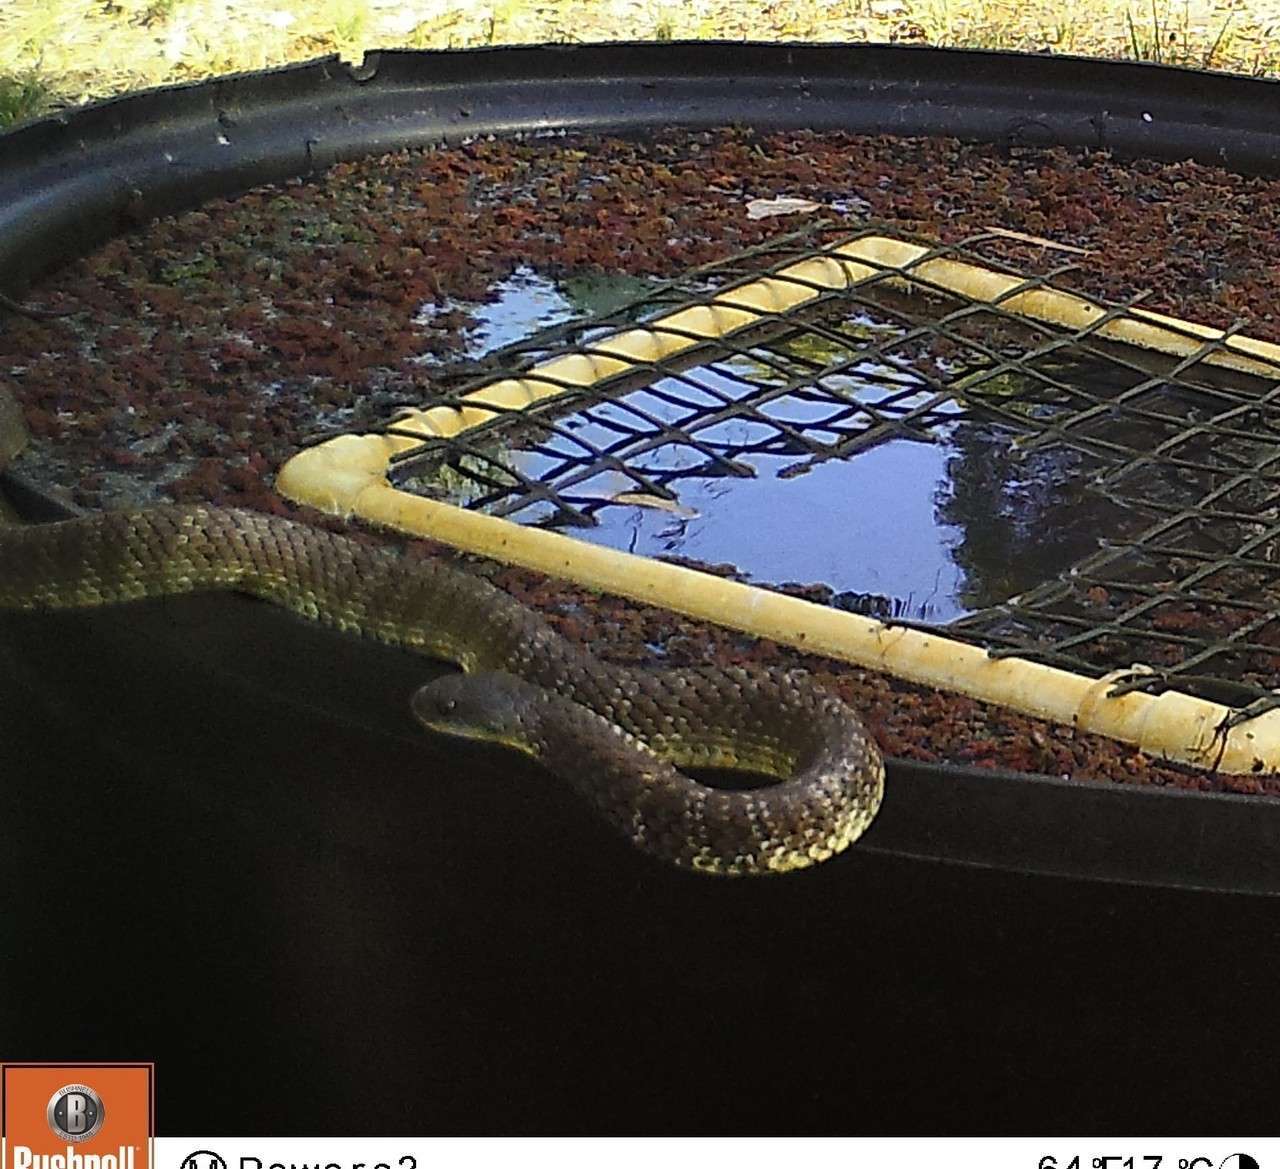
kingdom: Animalia
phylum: Chordata
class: Squamata
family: Elapidae
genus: Notechis
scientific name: Notechis scutatus
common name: Mainland tiger snake
